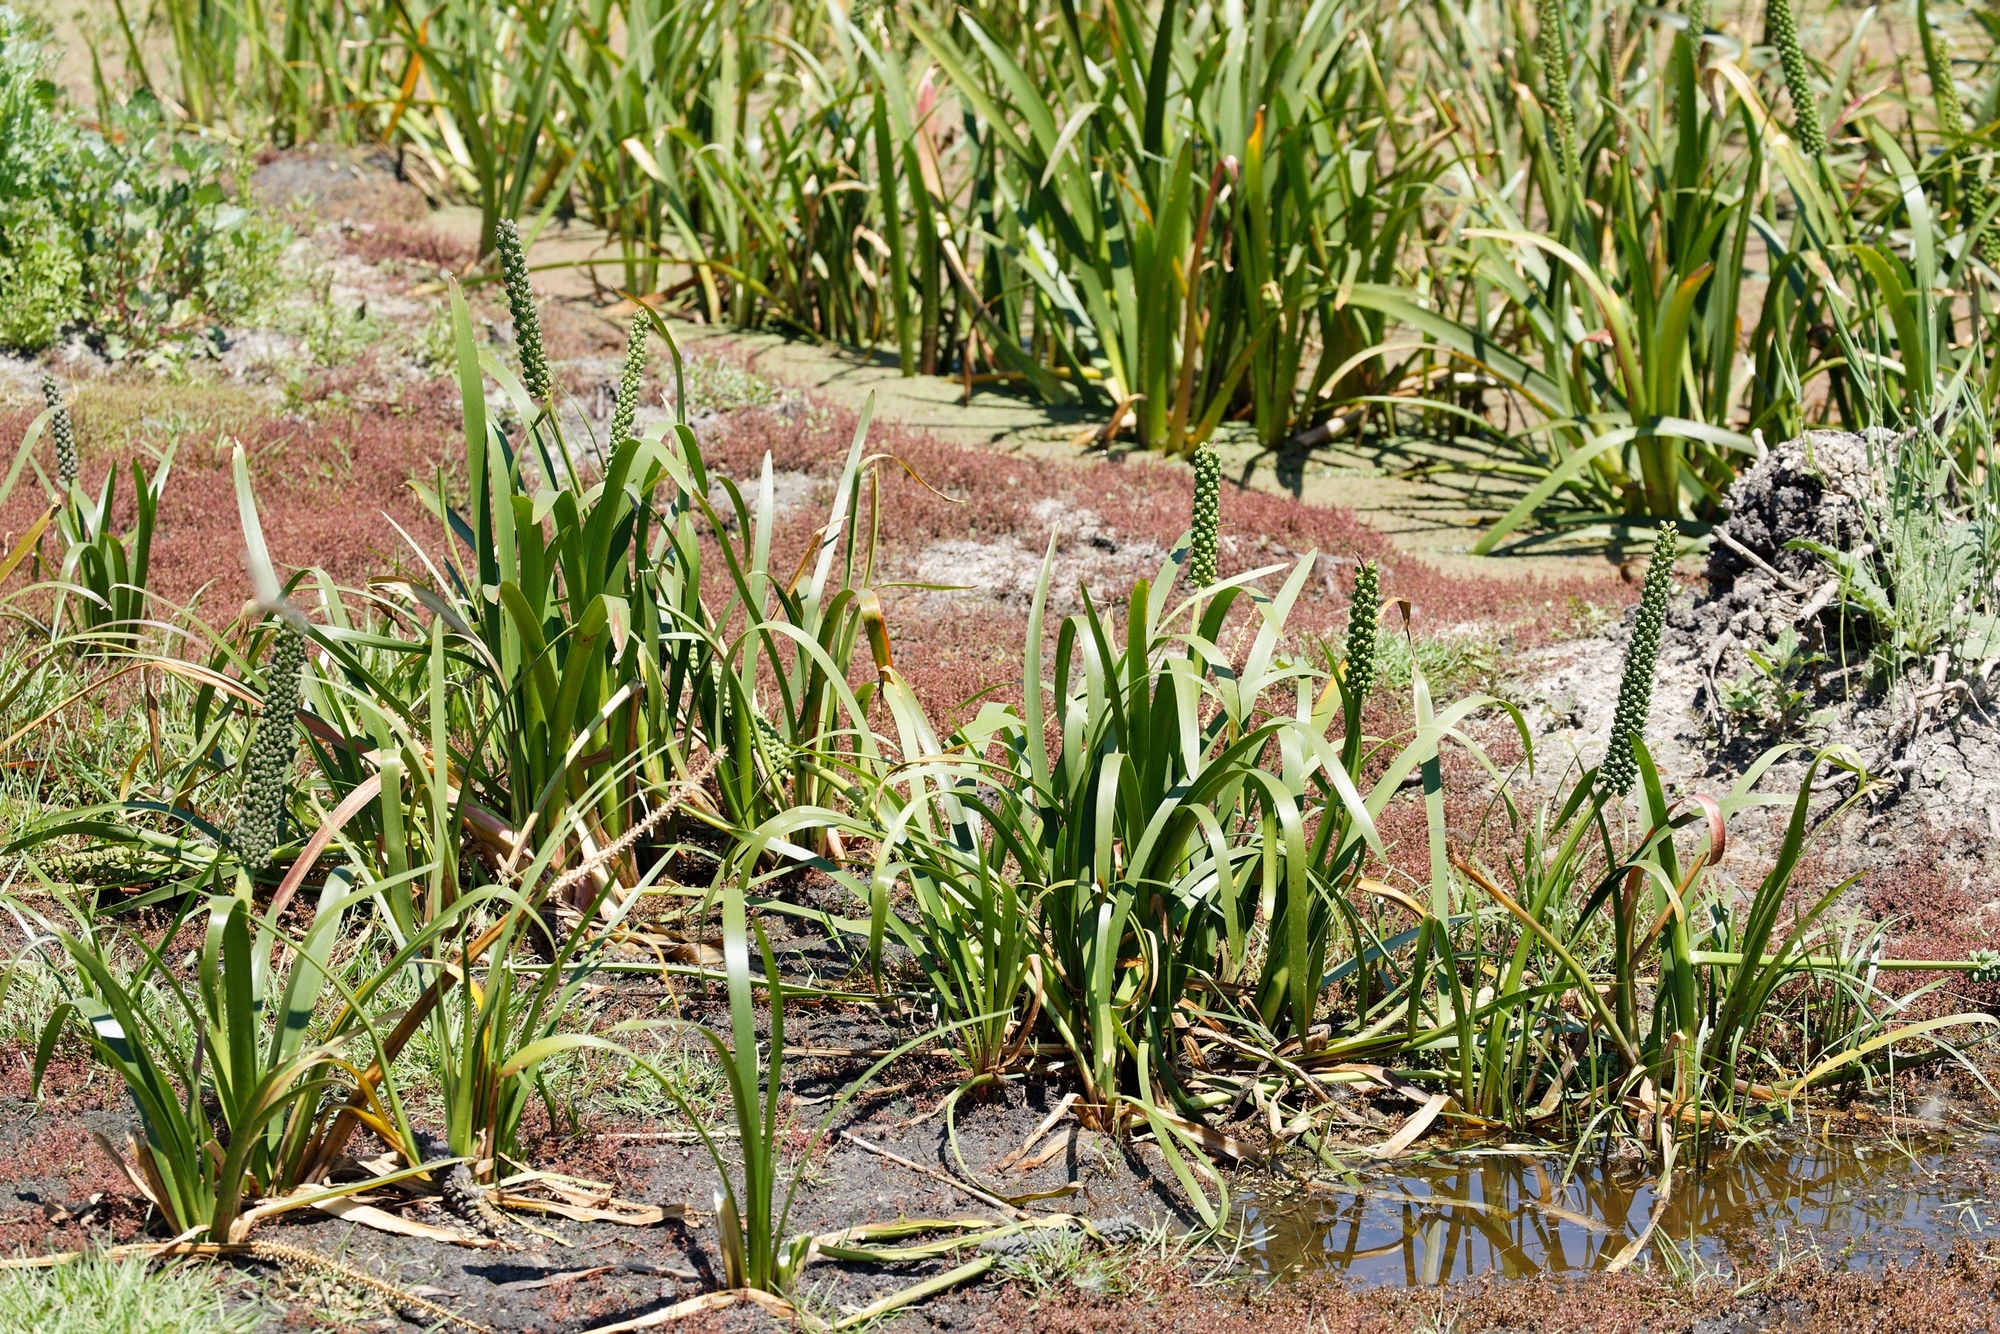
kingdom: Plantae
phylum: Tracheophyta
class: Liliopsida
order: Alismatales
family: Juncaginaceae
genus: Cycnogeton
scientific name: Cycnogeton procerum
